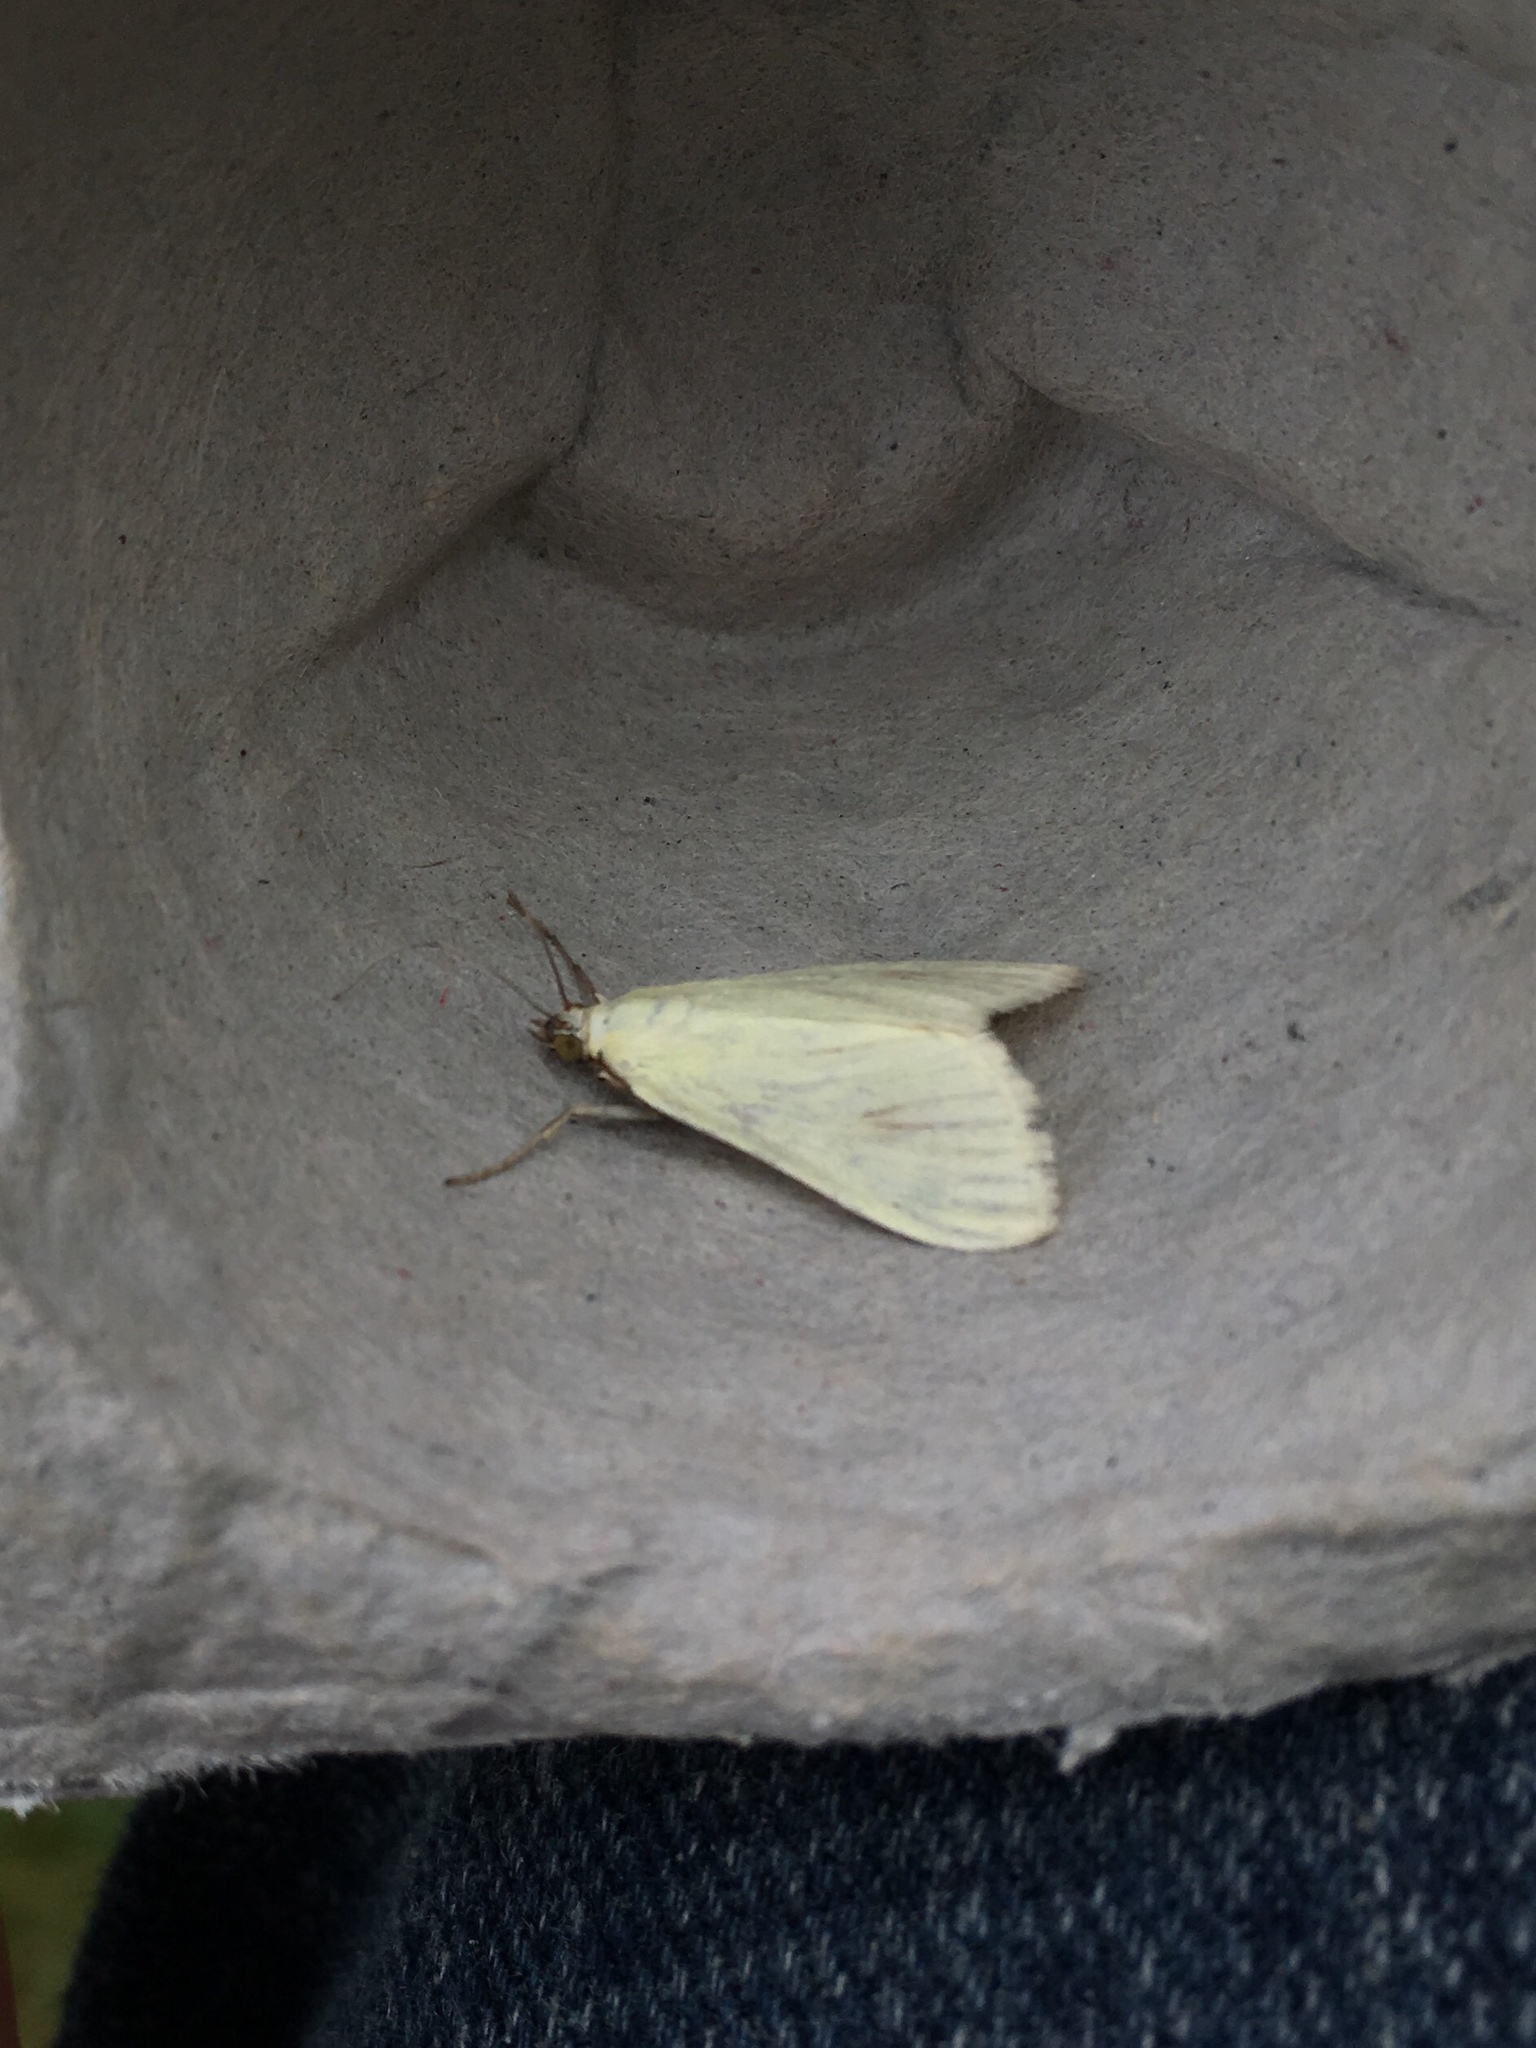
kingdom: Animalia
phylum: Arthropoda
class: Insecta
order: Lepidoptera
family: Crambidae
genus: Sitochroa
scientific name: Sitochroa palealis
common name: Greenish-yellow sitochroa moth
